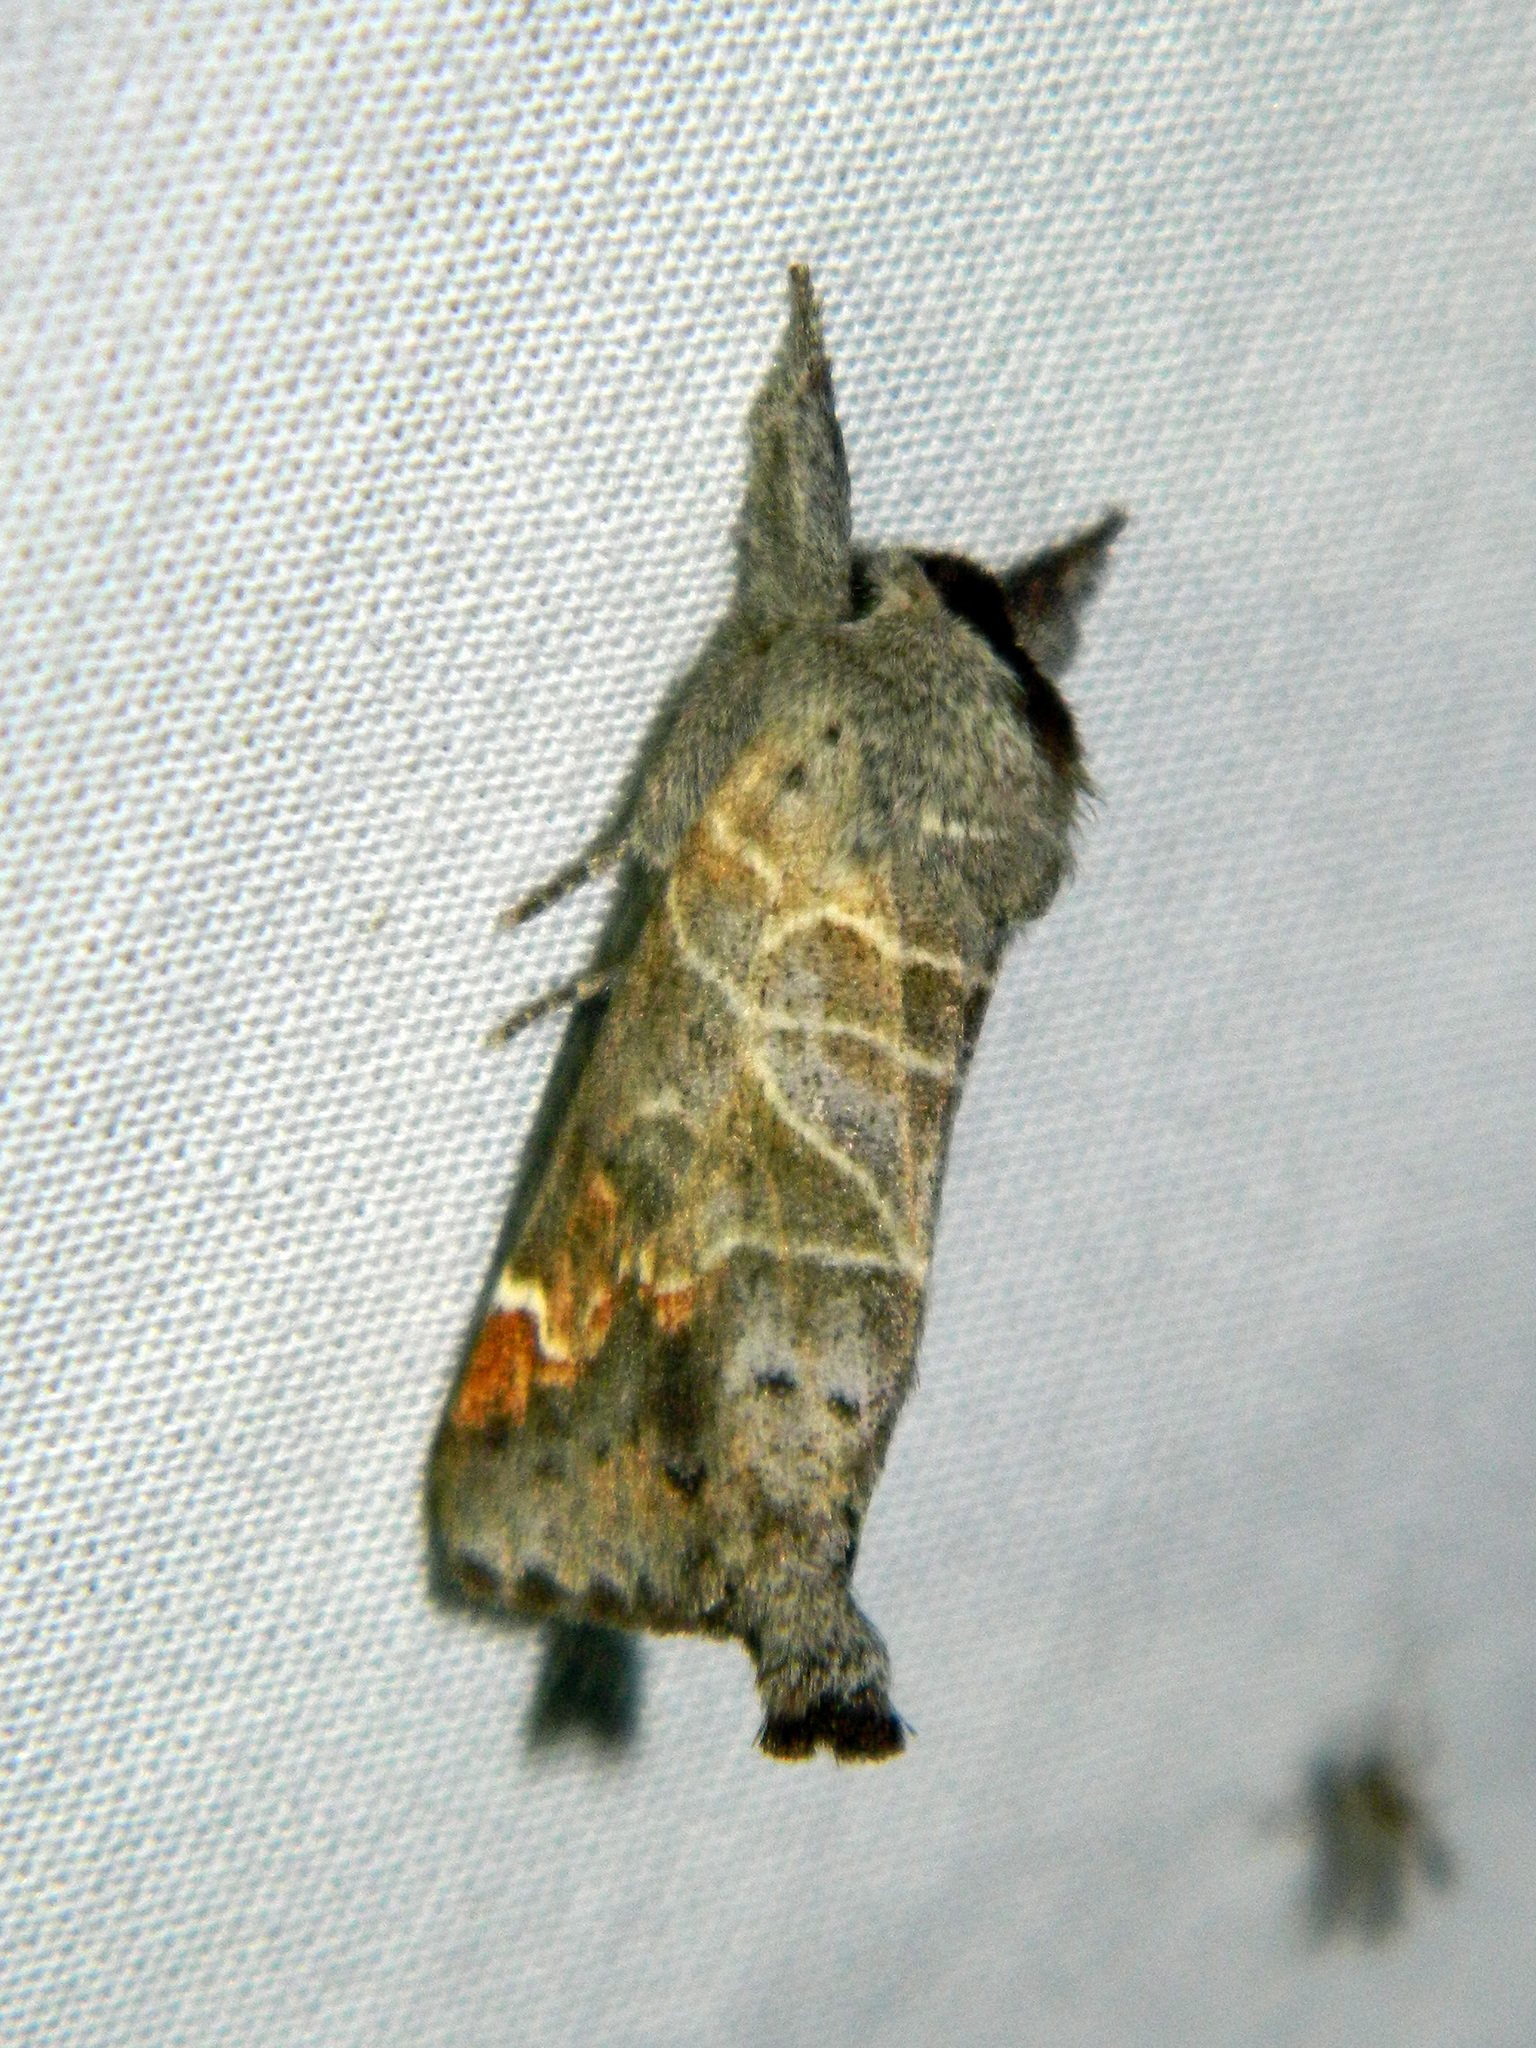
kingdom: Animalia
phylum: Arthropoda
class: Insecta
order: Lepidoptera
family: Notodontidae
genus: Clostera
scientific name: Clostera apicalis
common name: Apical prominent
